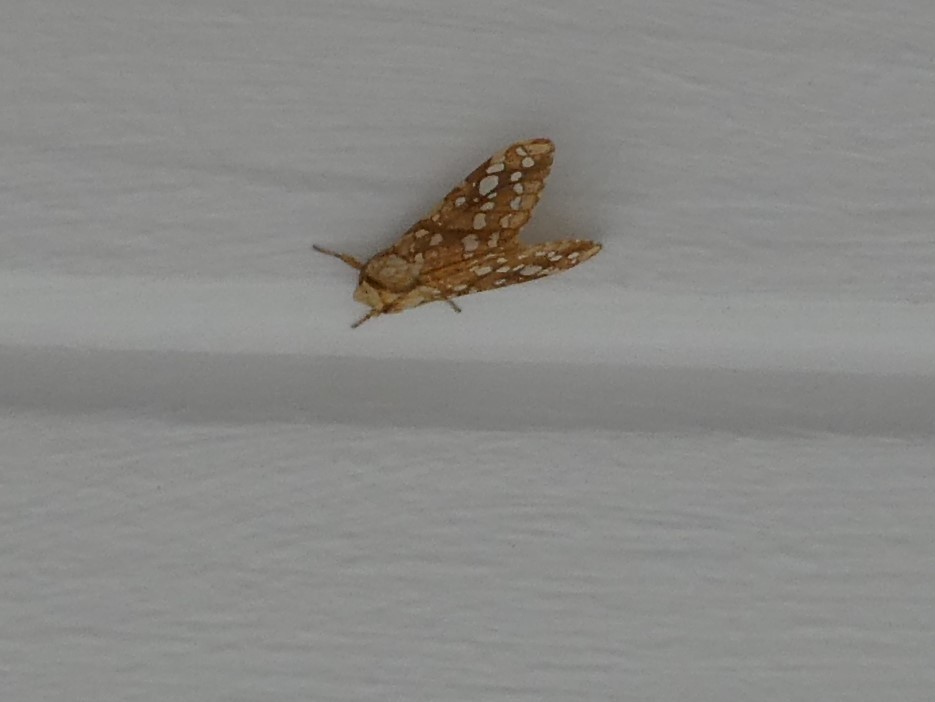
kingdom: Animalia
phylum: Arthropoda
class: Insecta
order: Lepidoptera
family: Erebidae
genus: Lophocampa
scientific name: Lophocampa caryae
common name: Hickory tussock moth
